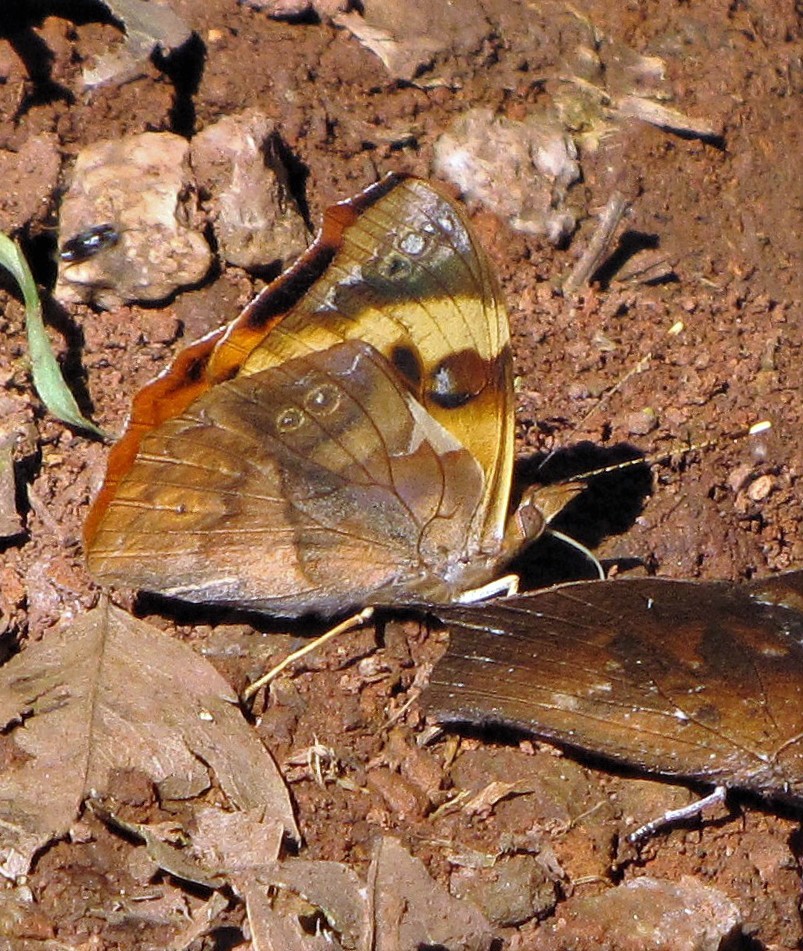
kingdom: Animalia
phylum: Arthropoda
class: Insecta
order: Lepidoptera
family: Nymphalidae
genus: Epiphile
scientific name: Epiphile hubneri
